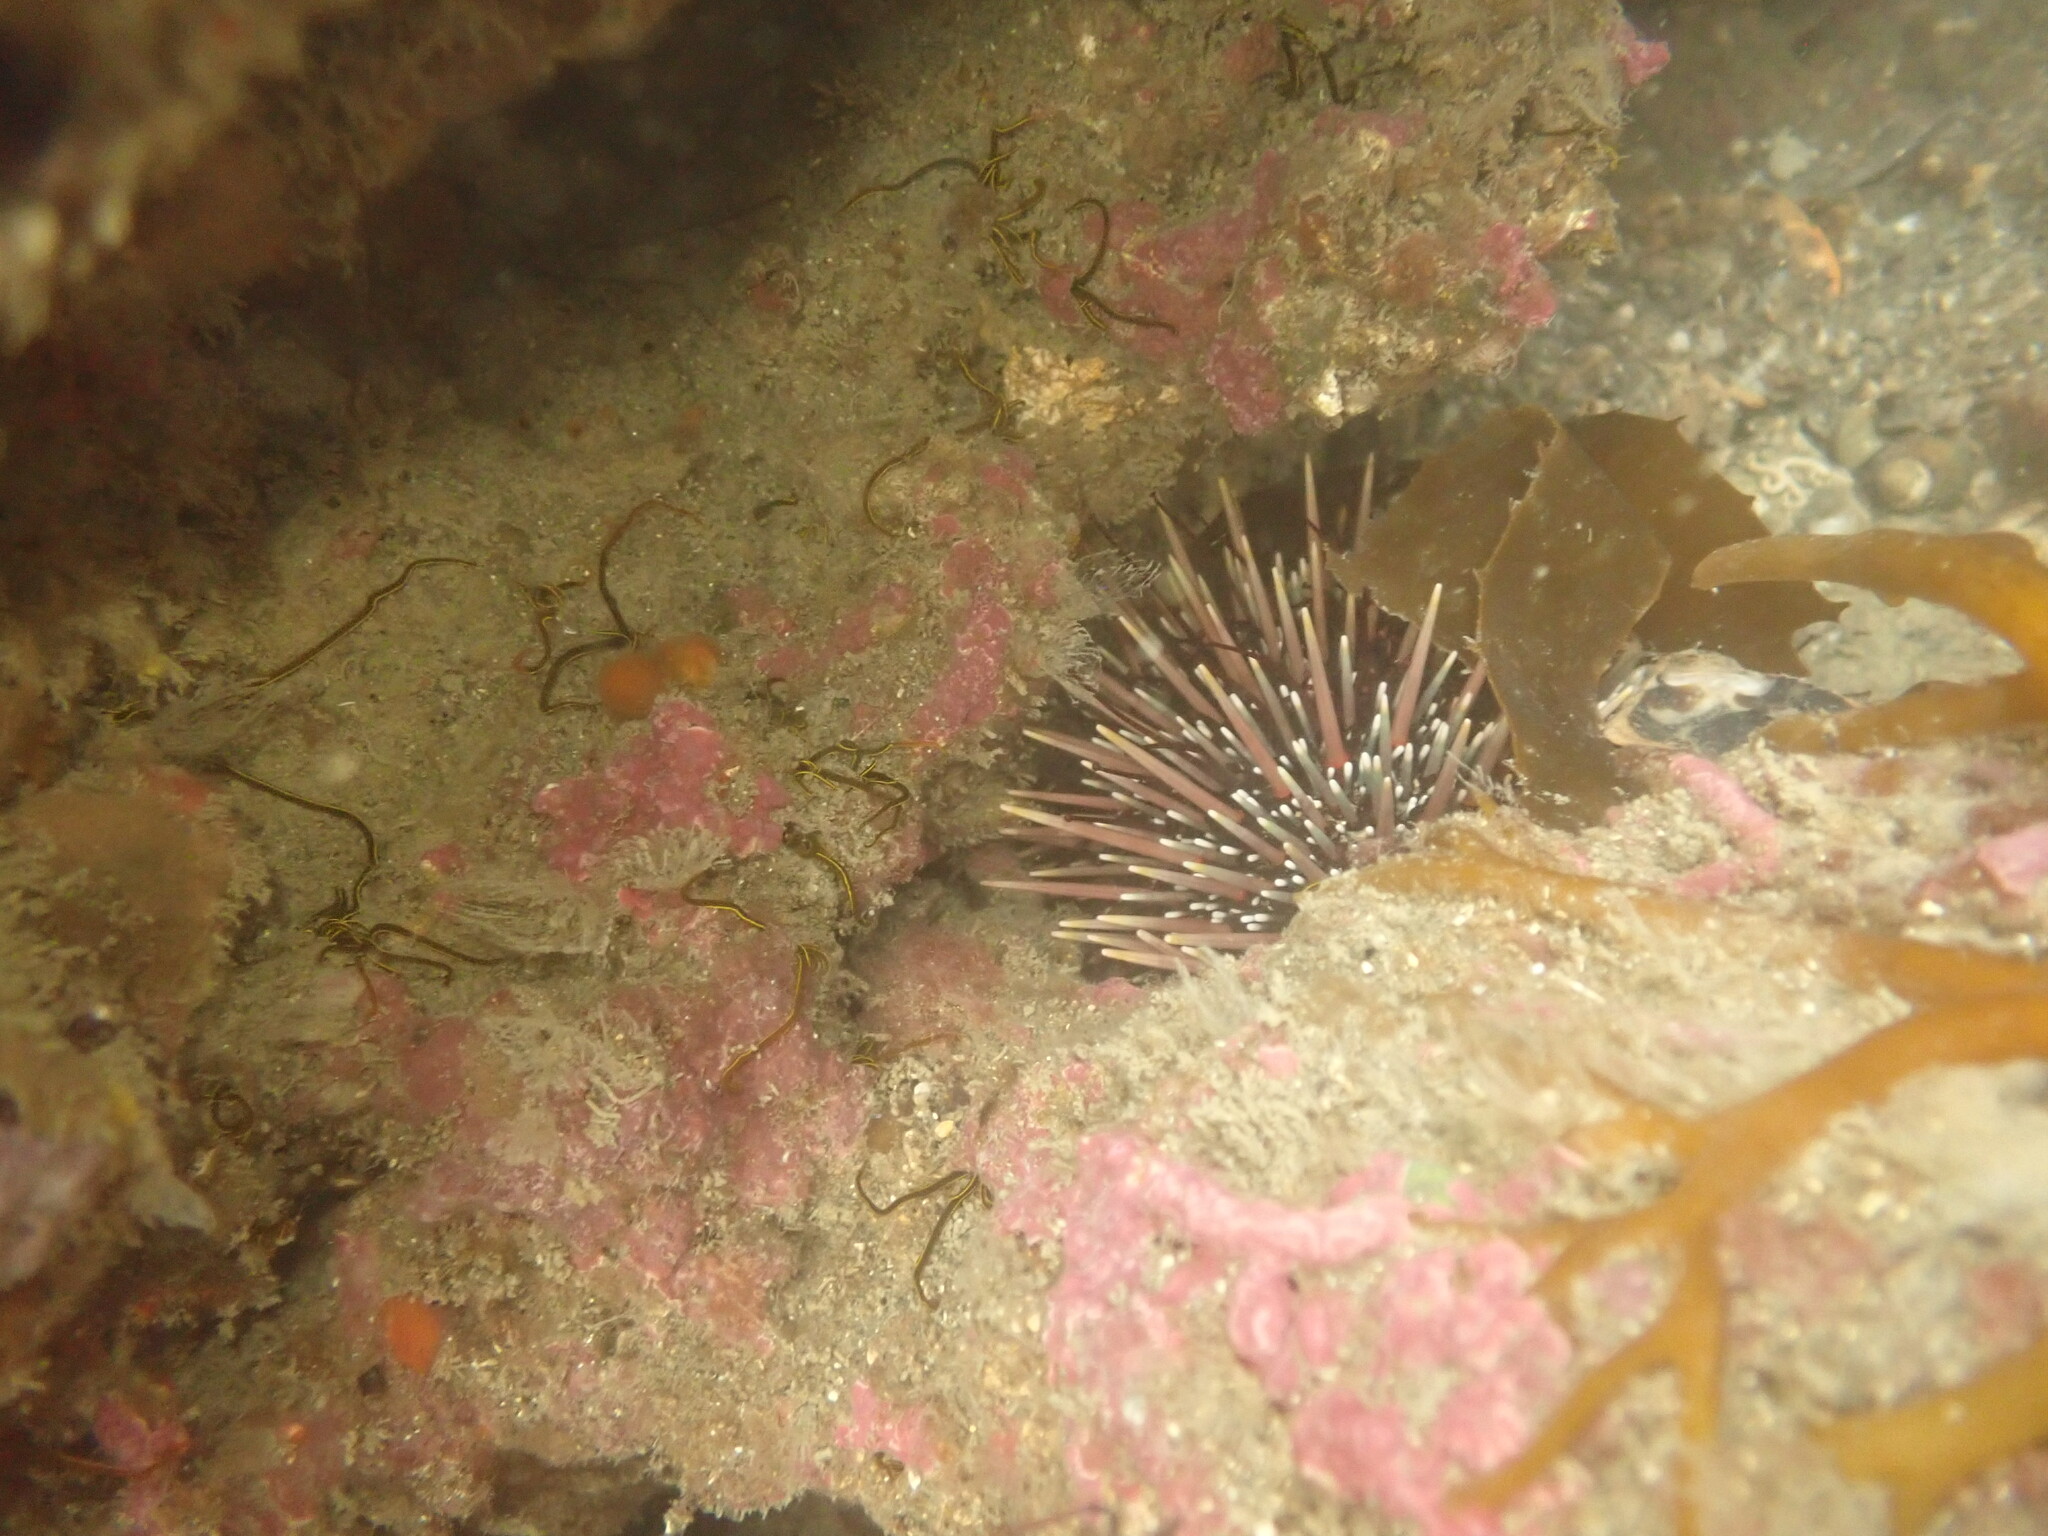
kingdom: Animalia
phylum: Echinodermata
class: Echinoidea
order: Camarodonta
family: Echinometridae
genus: Evechinus
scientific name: Evechinus chloroticus
